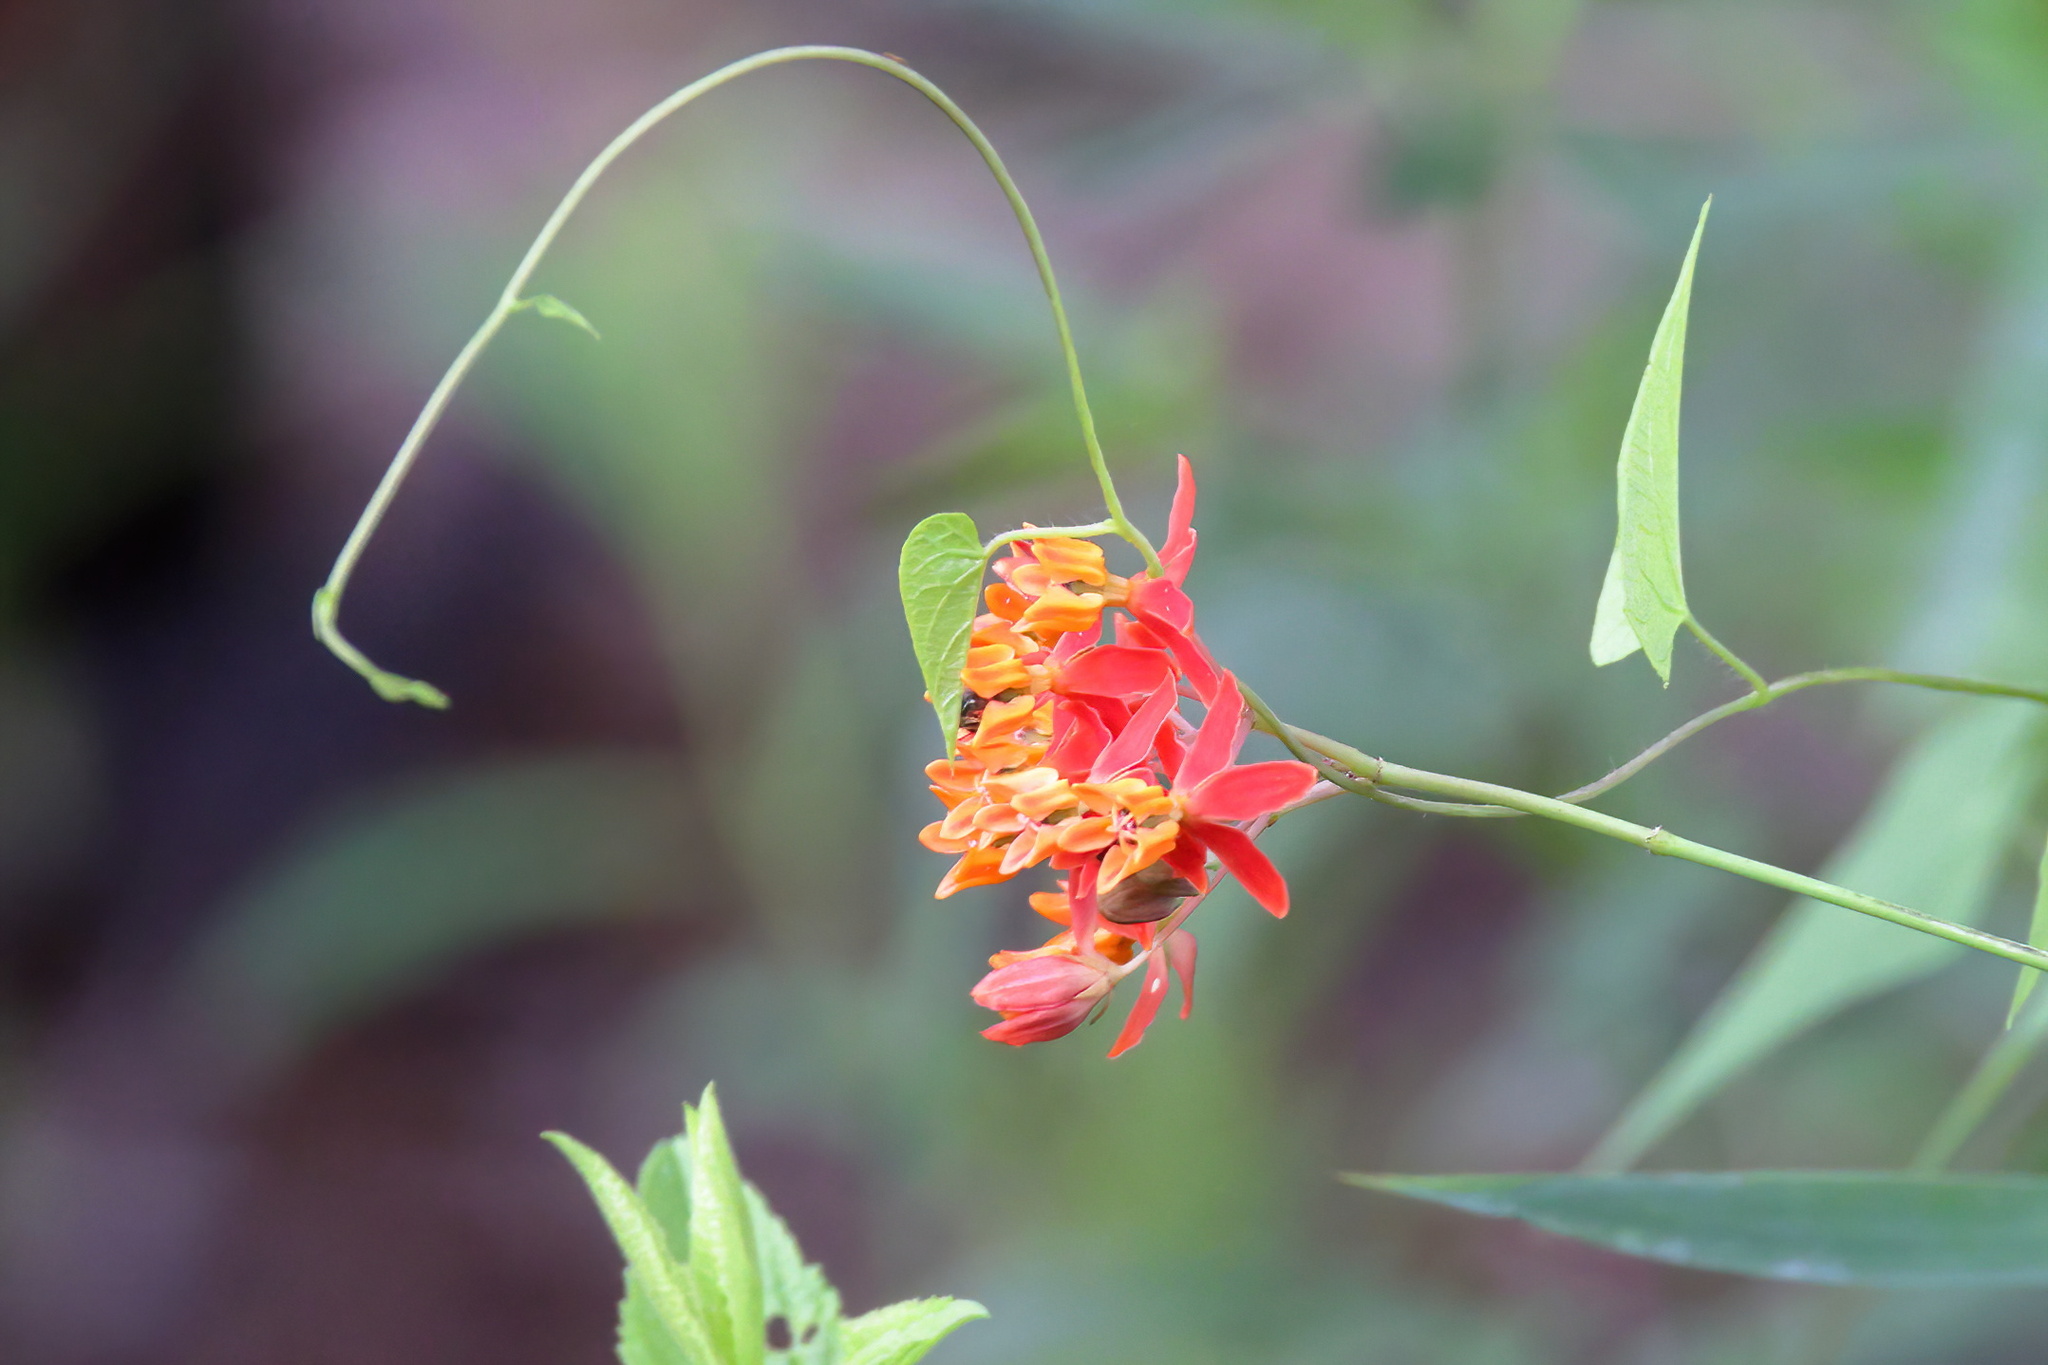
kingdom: Plantae
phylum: Tracheophyta
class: Magnoliopsida
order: Gentianales
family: Apocynaceae
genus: Asclepias
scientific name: Asclepias lanceolata
